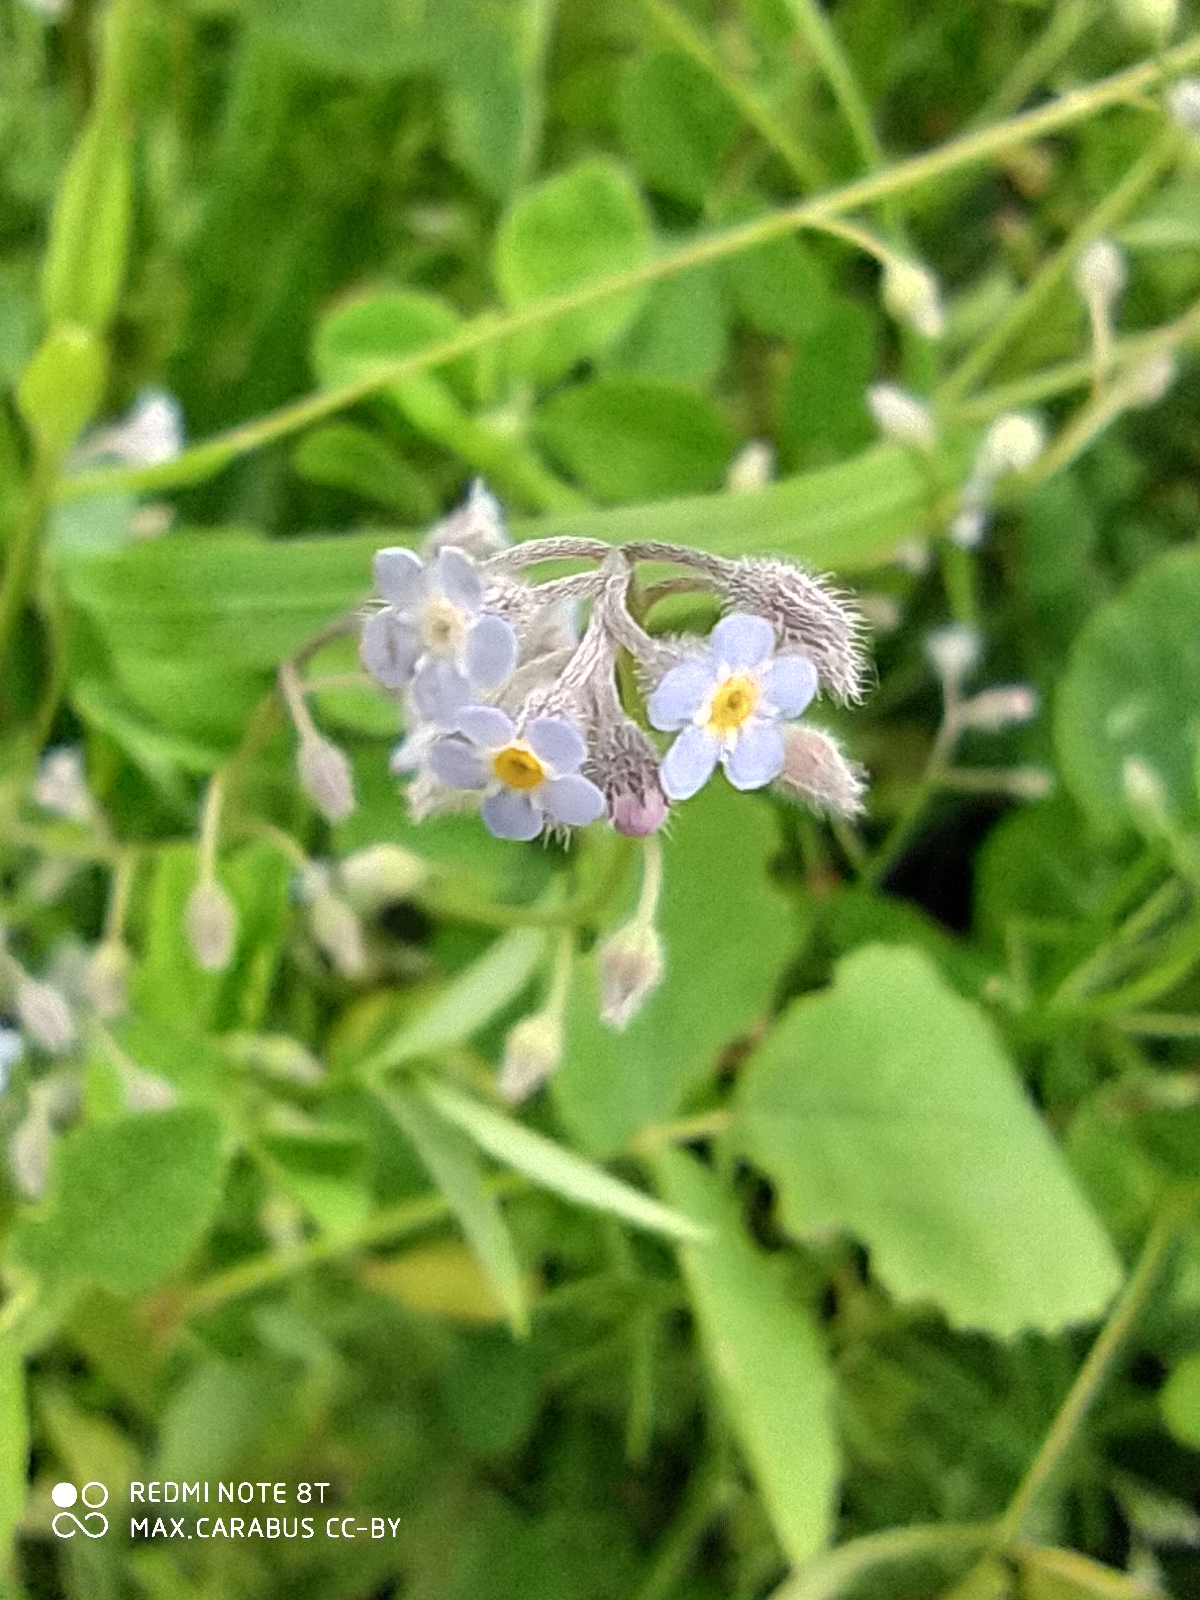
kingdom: Plantae
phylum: Tracheophyta
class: Magnoliopsida
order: Boraginales
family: Boraginaceae
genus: Myosotis
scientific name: Myosotis arvensis
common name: Field forget-me-not
